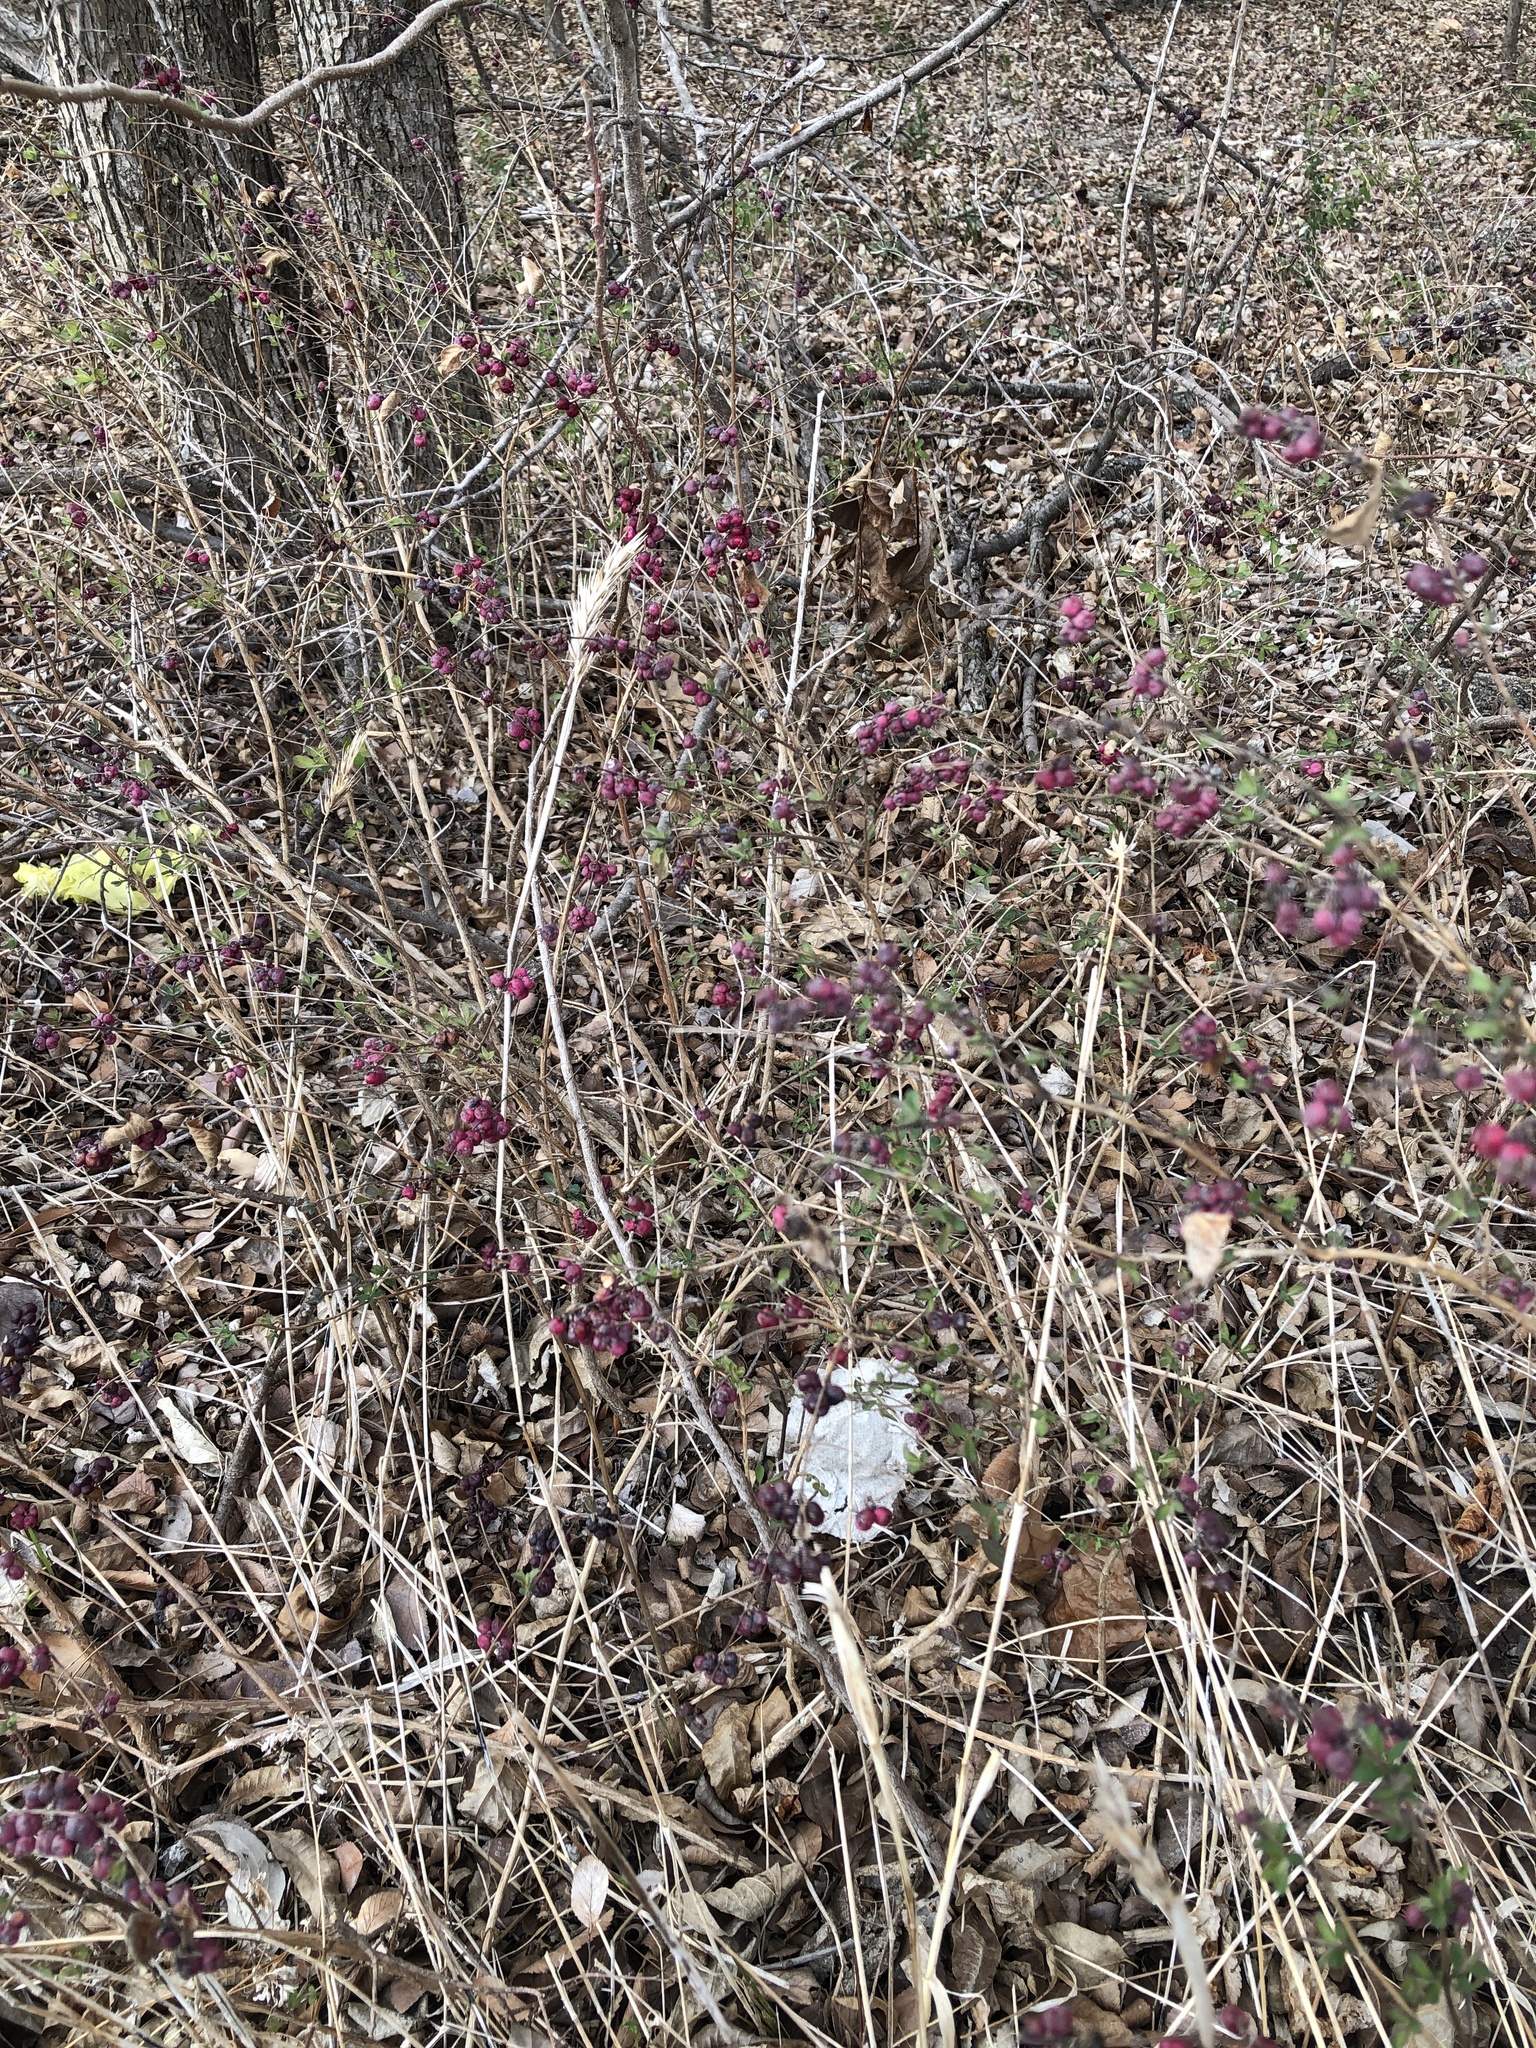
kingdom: Plantae
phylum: Tracheophyta
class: Magnoliopsida
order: Dipsacales
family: Caprifoliaceae
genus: Symphoricarpos
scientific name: Symphoricarpos orbiculatus
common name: Coralberry
